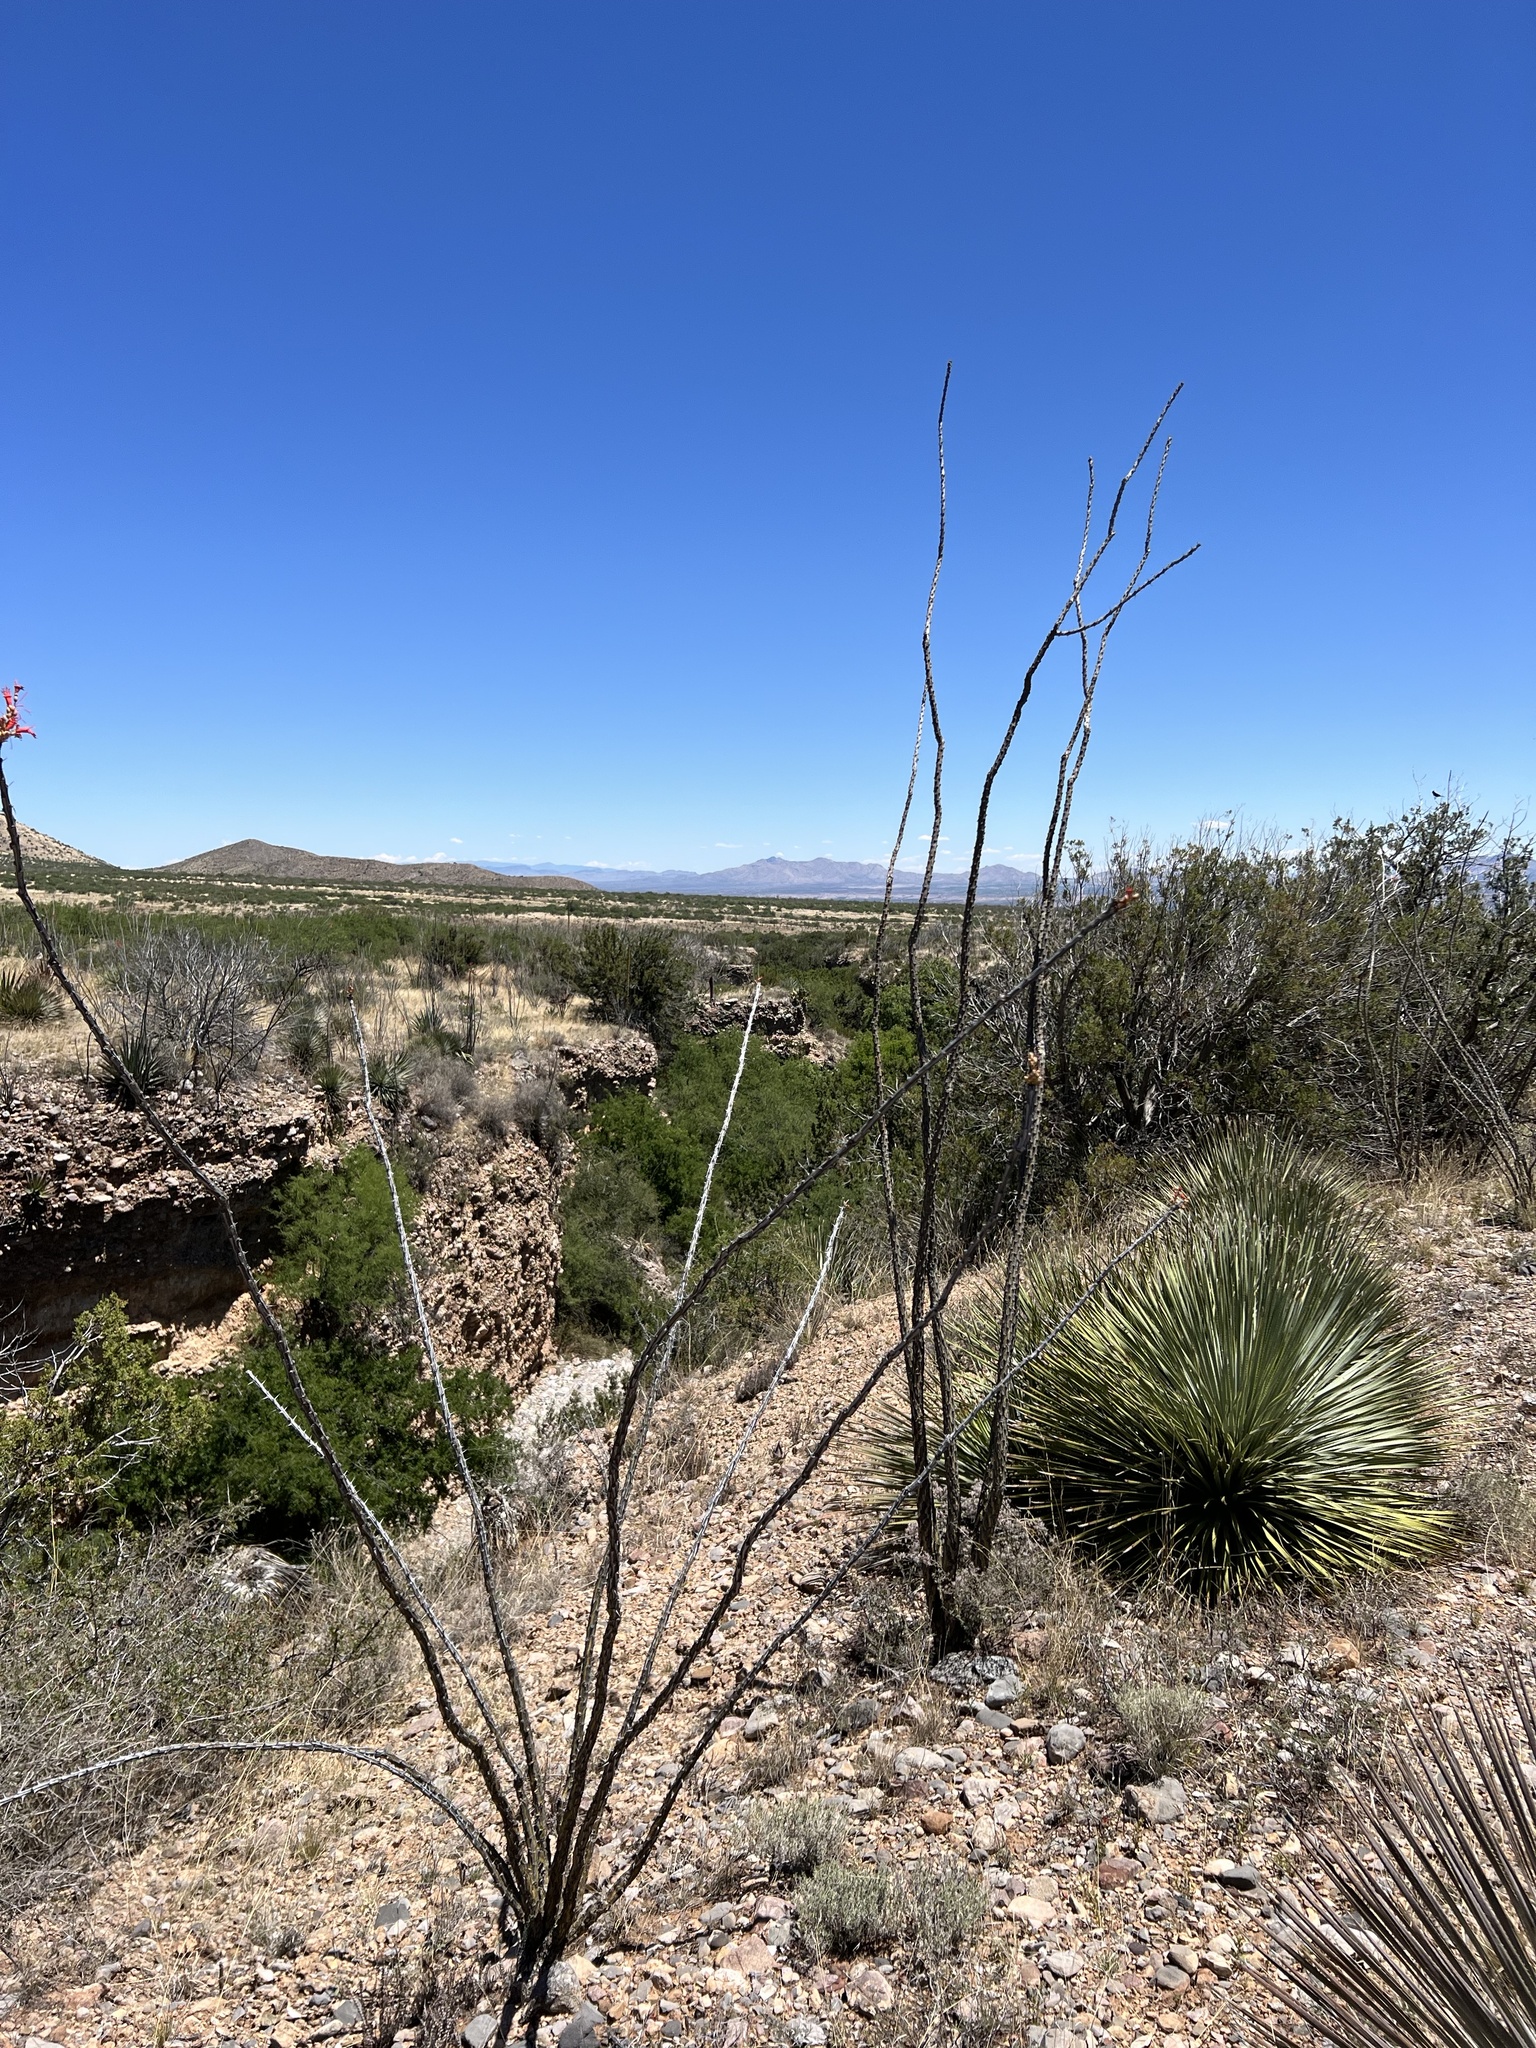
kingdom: Plantae
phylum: Tracheophyta
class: Magnoliopsida
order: Ericales
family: Fouquieriaceae
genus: Fouquieria
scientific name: Fouquieria splendens
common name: Vine-cactus
